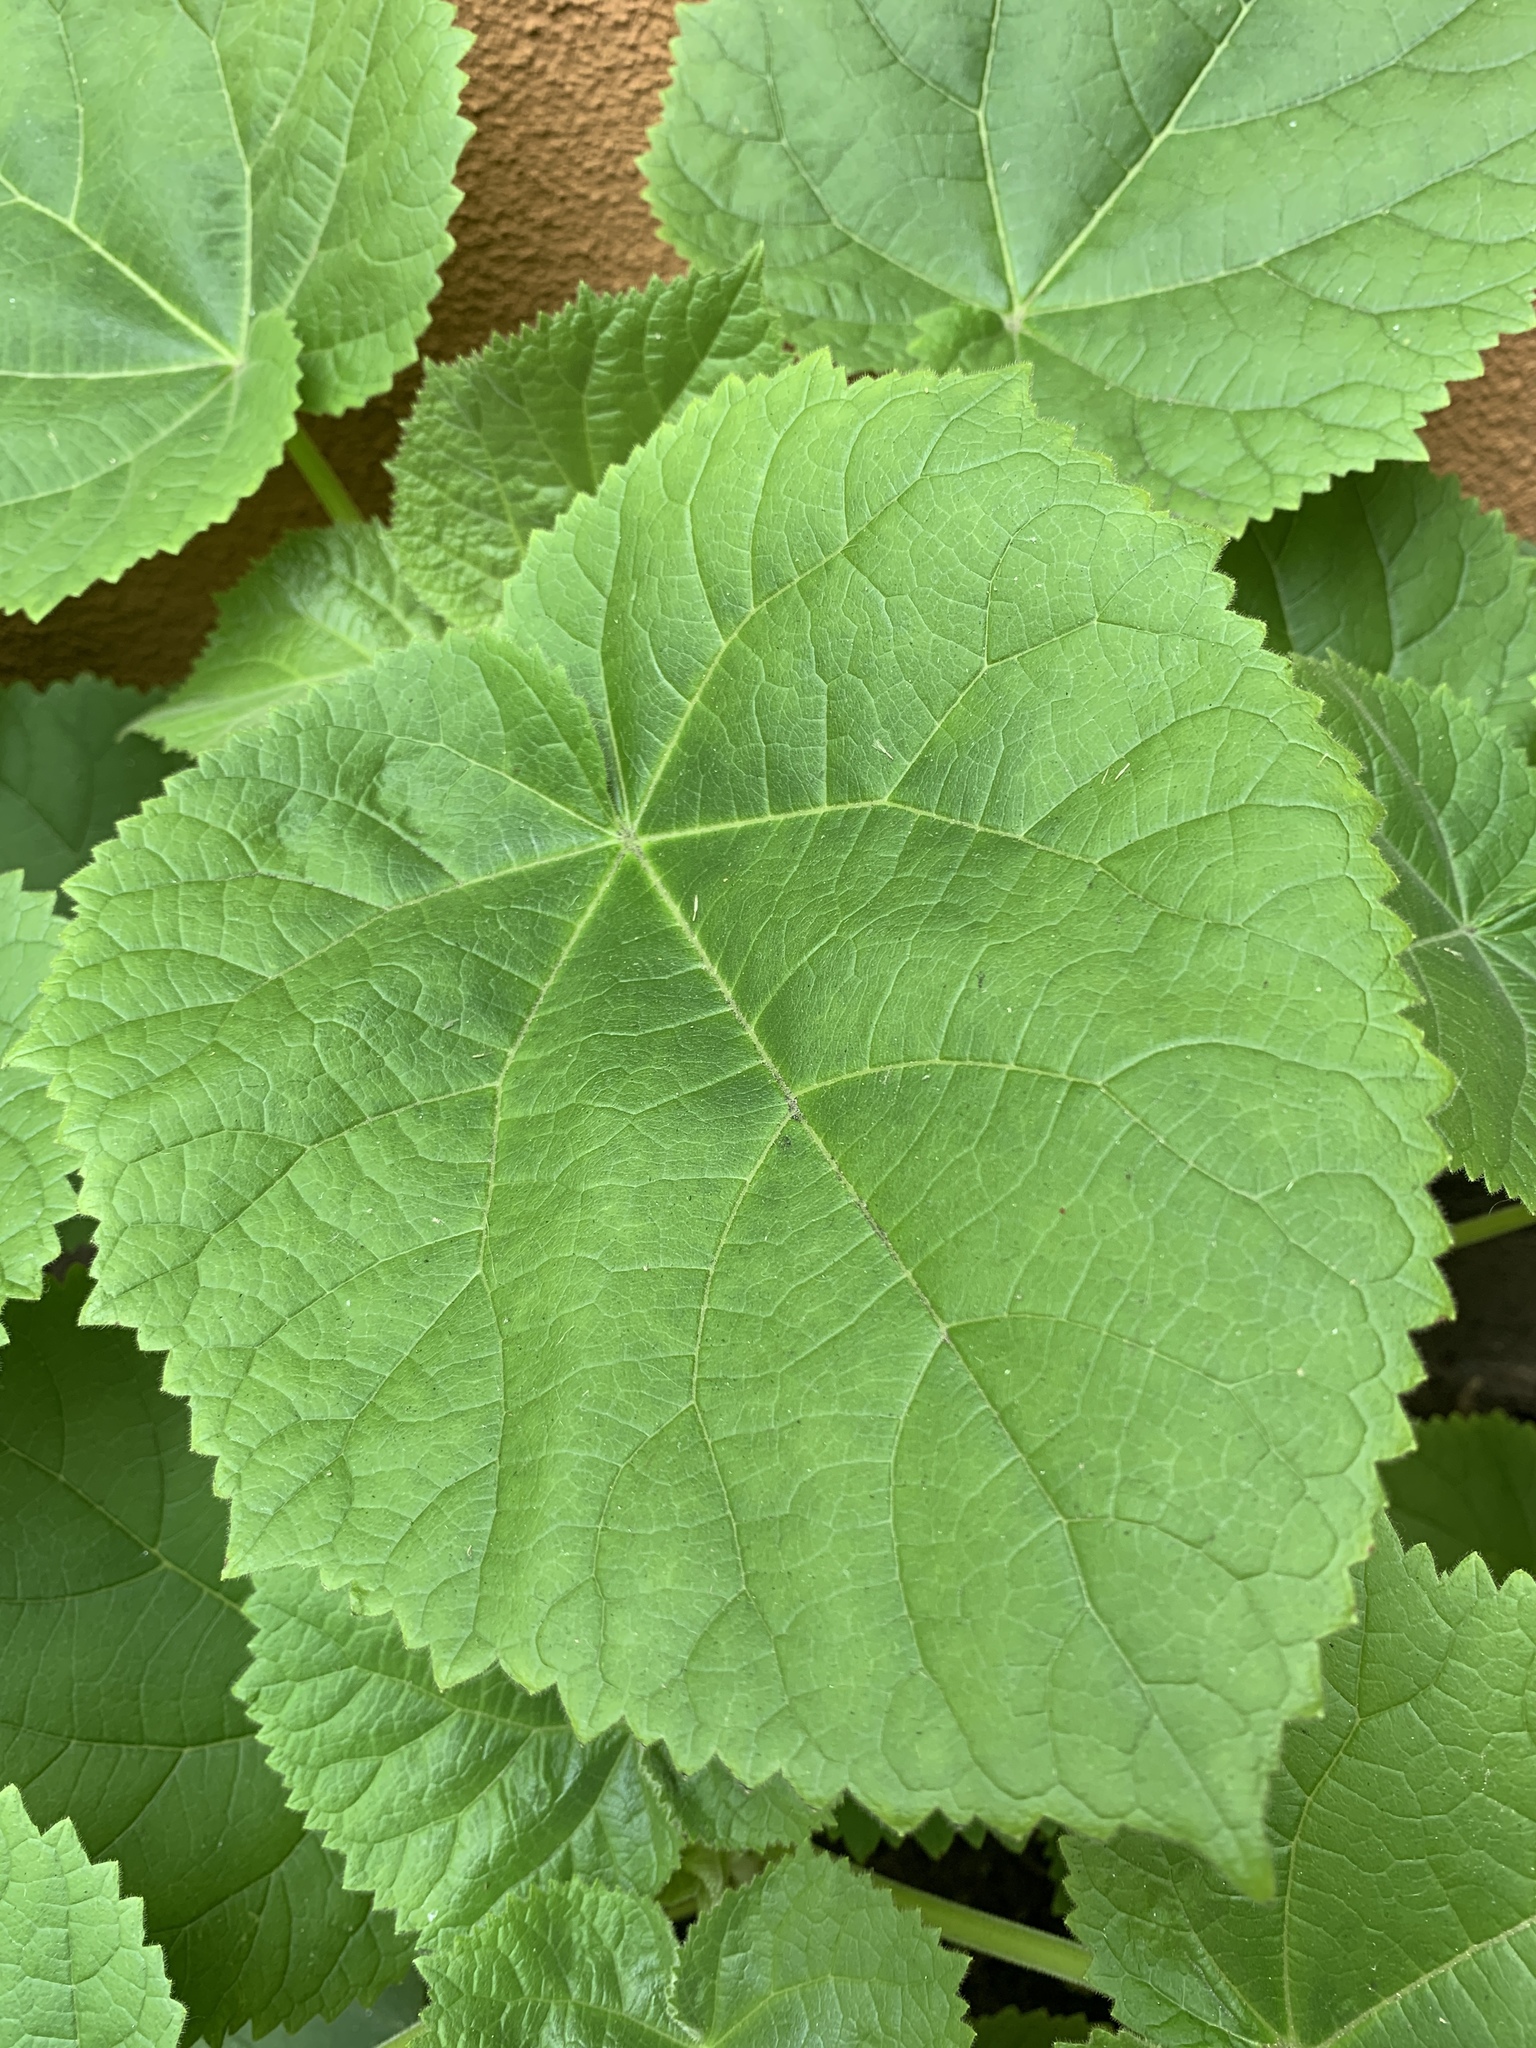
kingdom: Plantae
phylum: Tracheophyta
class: Magnoliopsida
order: Lamiales
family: Paulowniaceae
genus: Paulownia
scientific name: Paulownia tomentosa
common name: Foxglove-tree
